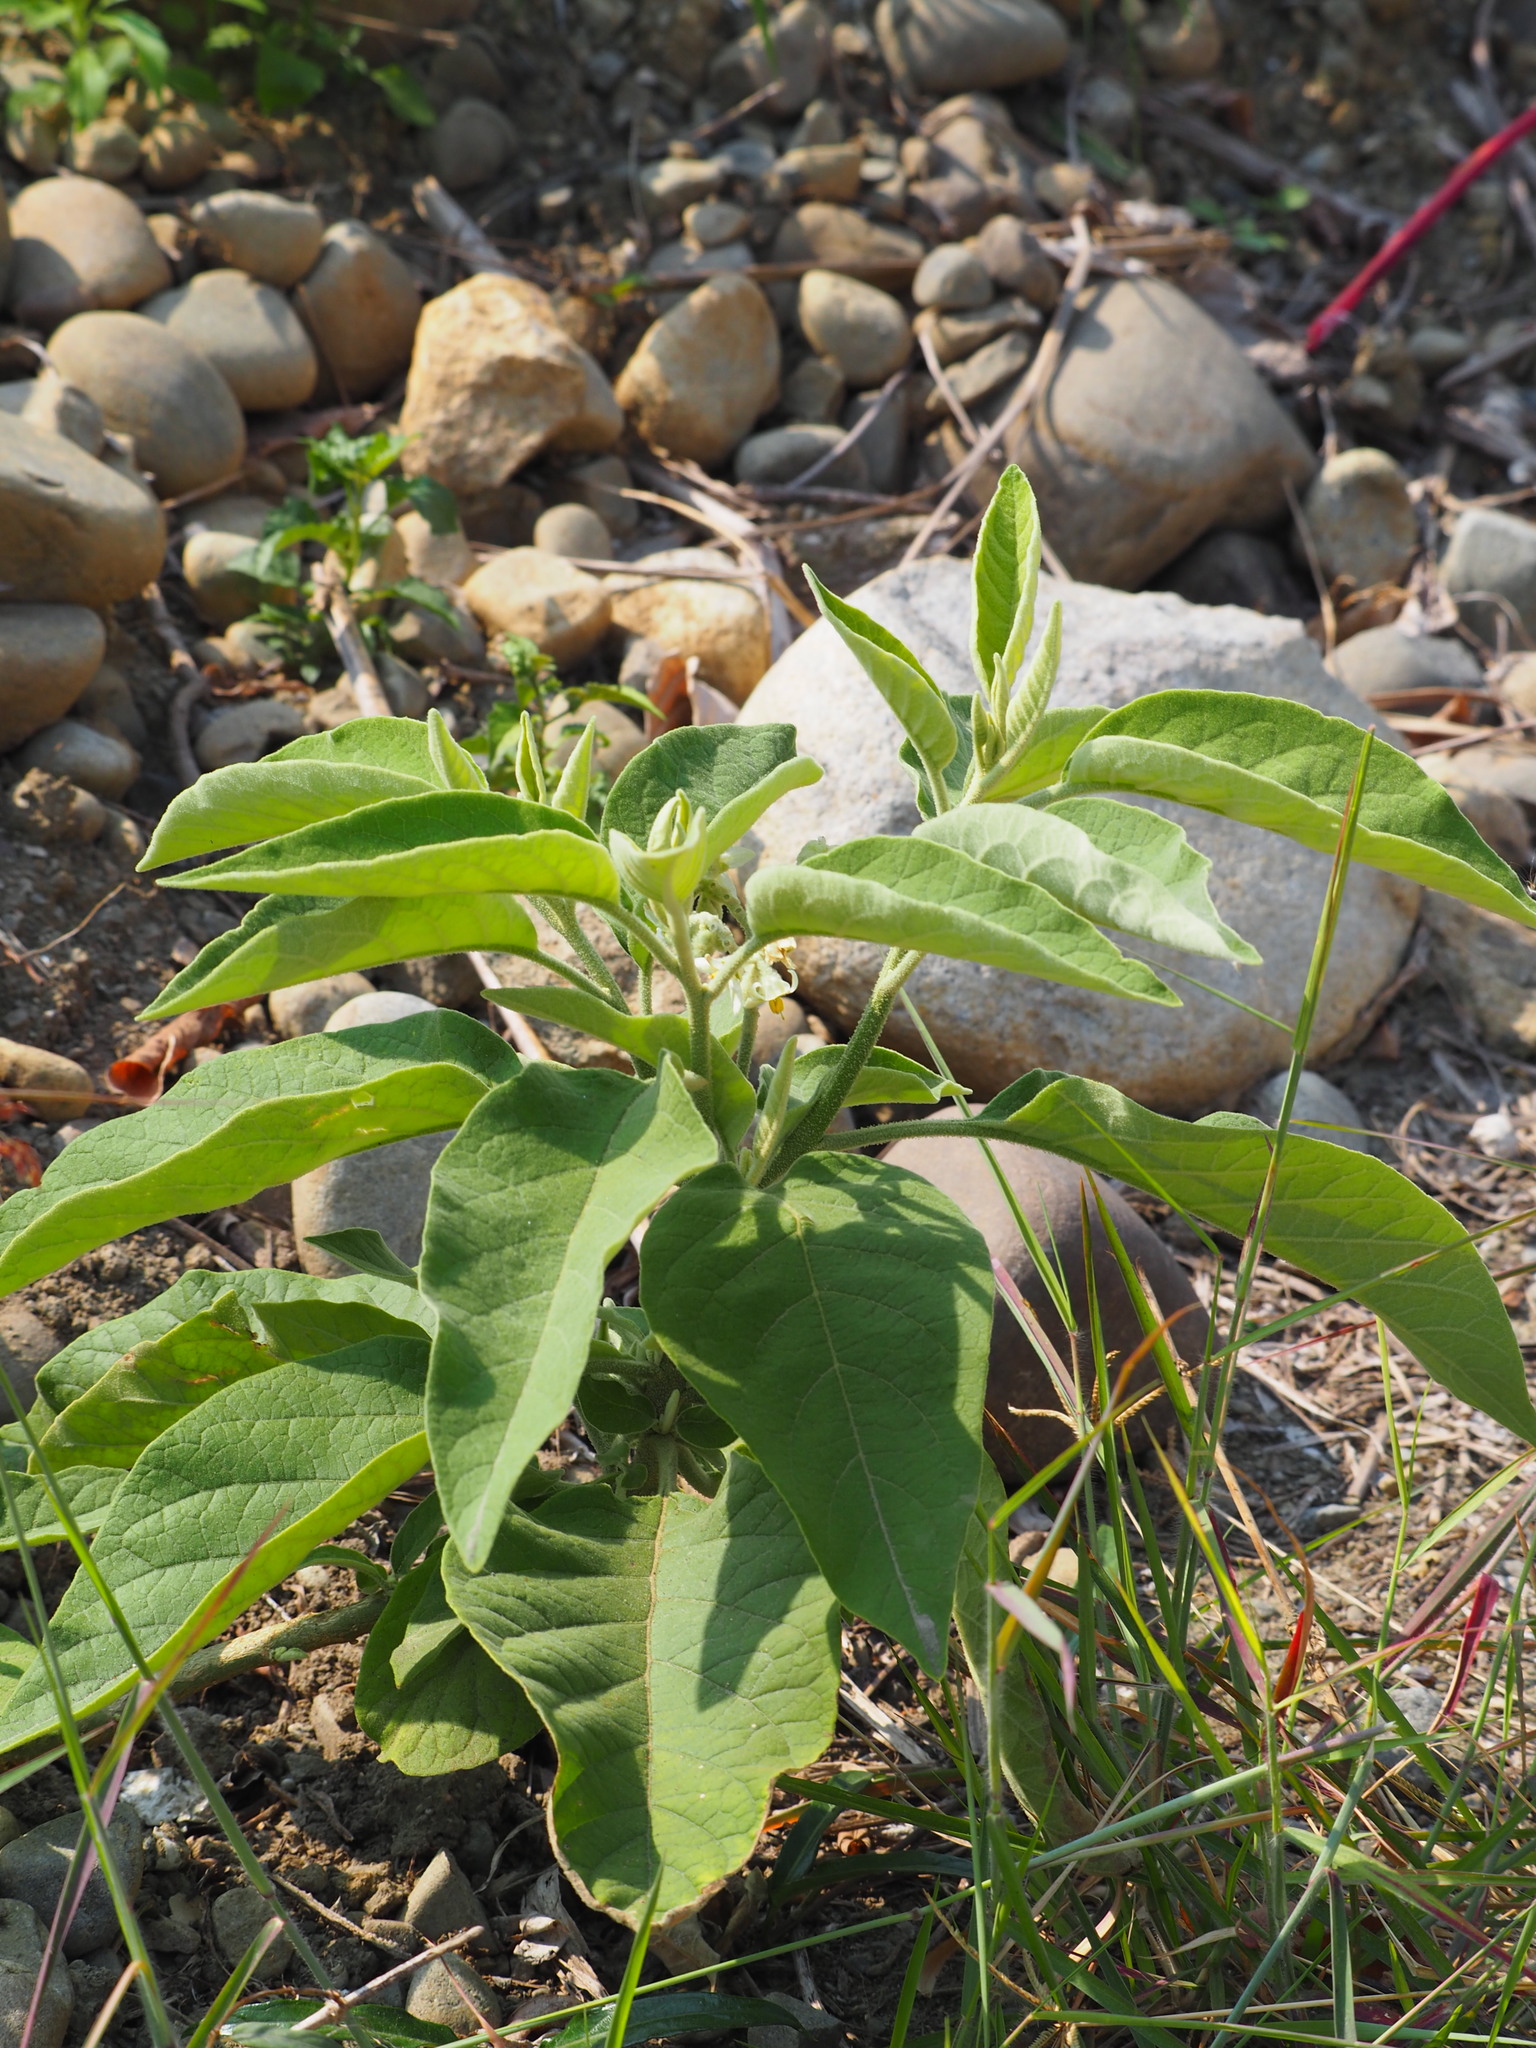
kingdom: Plantae
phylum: Tracheophyta
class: Magnoliopsida
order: Solanales
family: Solanaceae
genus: Solanum
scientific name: Solanum erianthum
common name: Tobacco-tree
